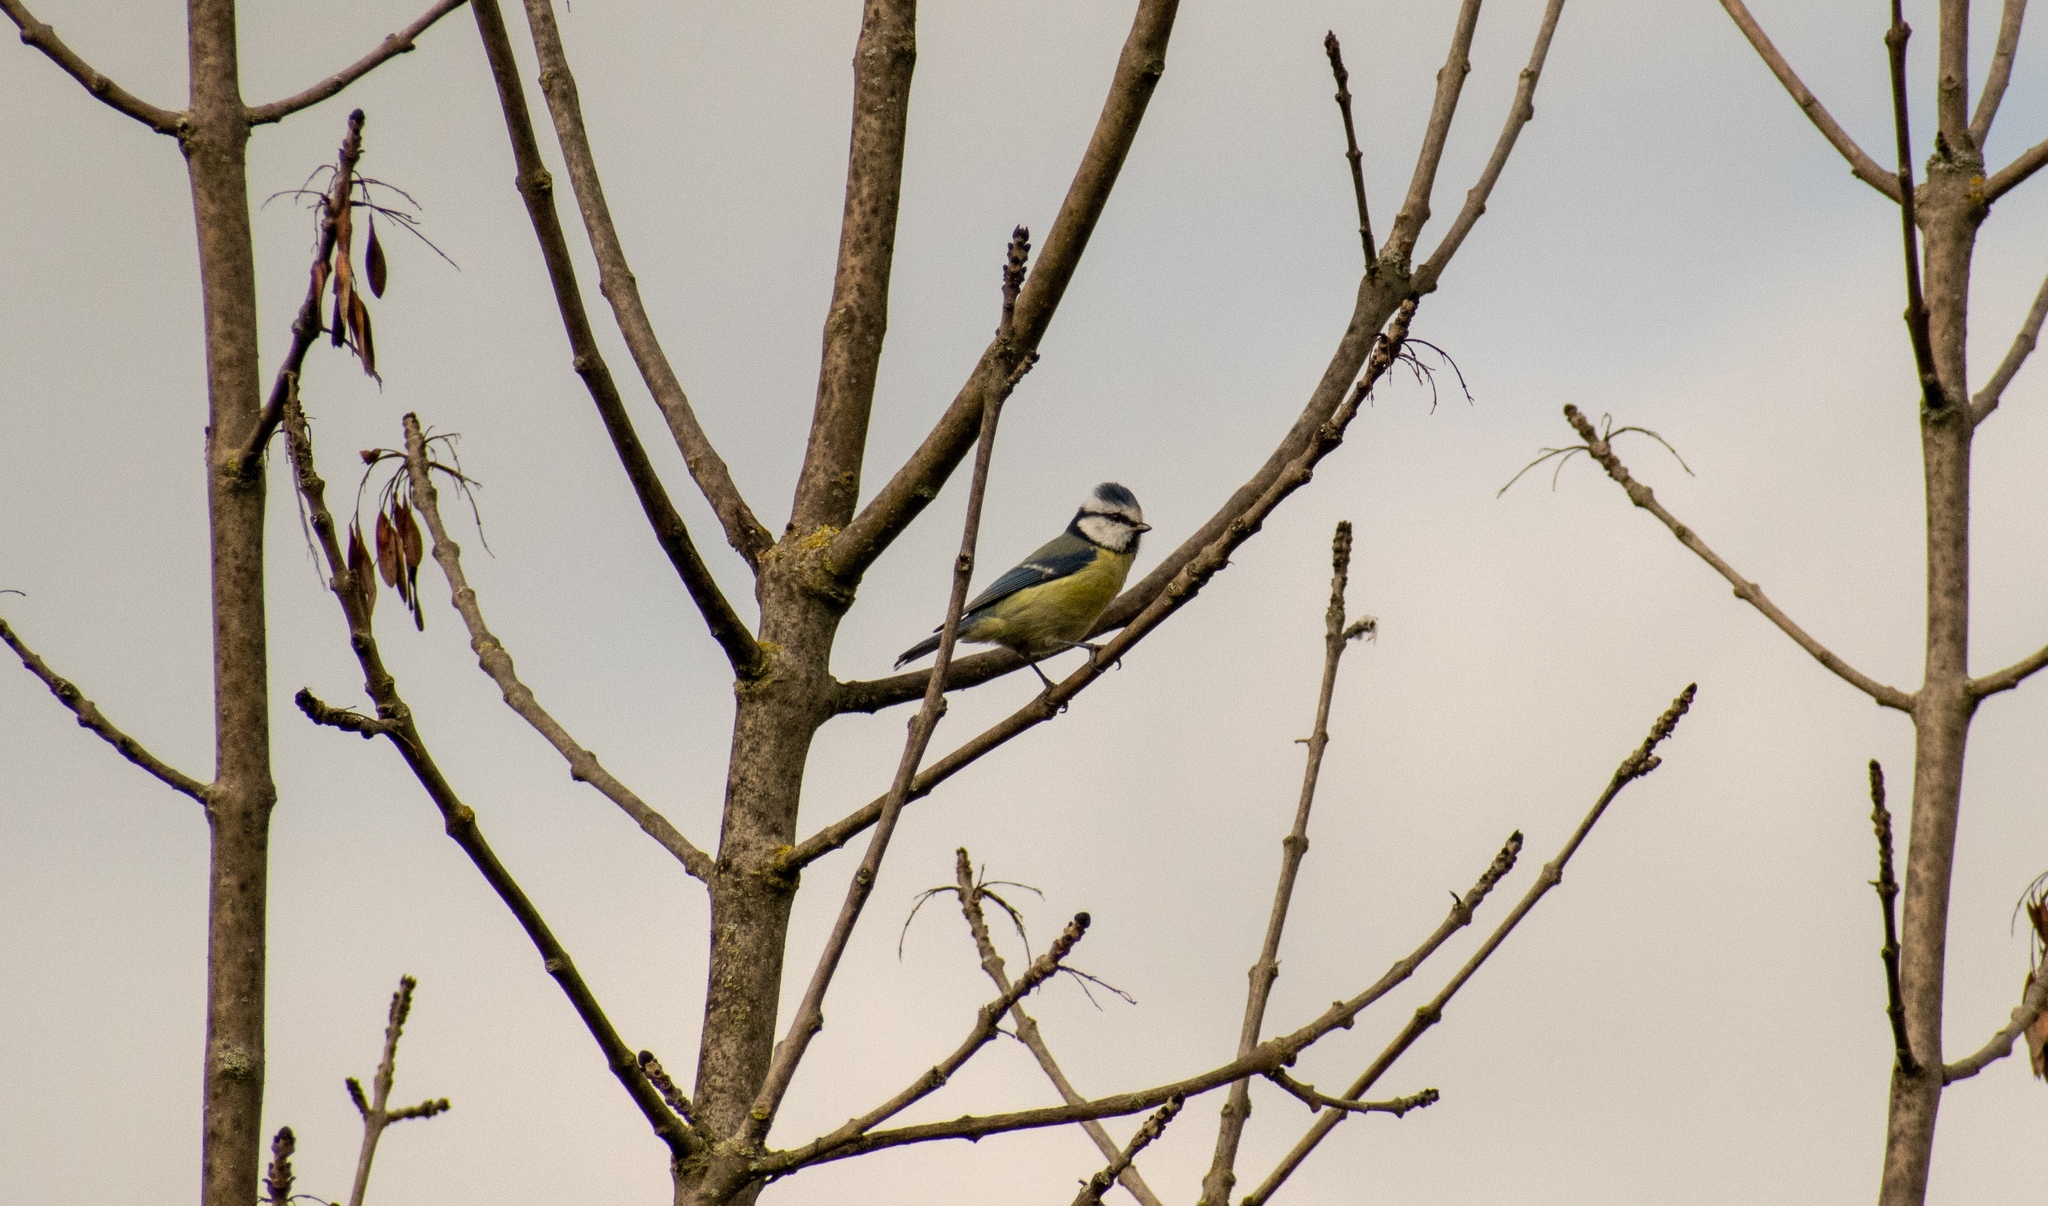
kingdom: Animalia
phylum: Chordata
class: Aves
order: Passeriformes
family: Paridae
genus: Cyanistes
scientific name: Cyanistes caeruleus
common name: Eurasian blue tit
